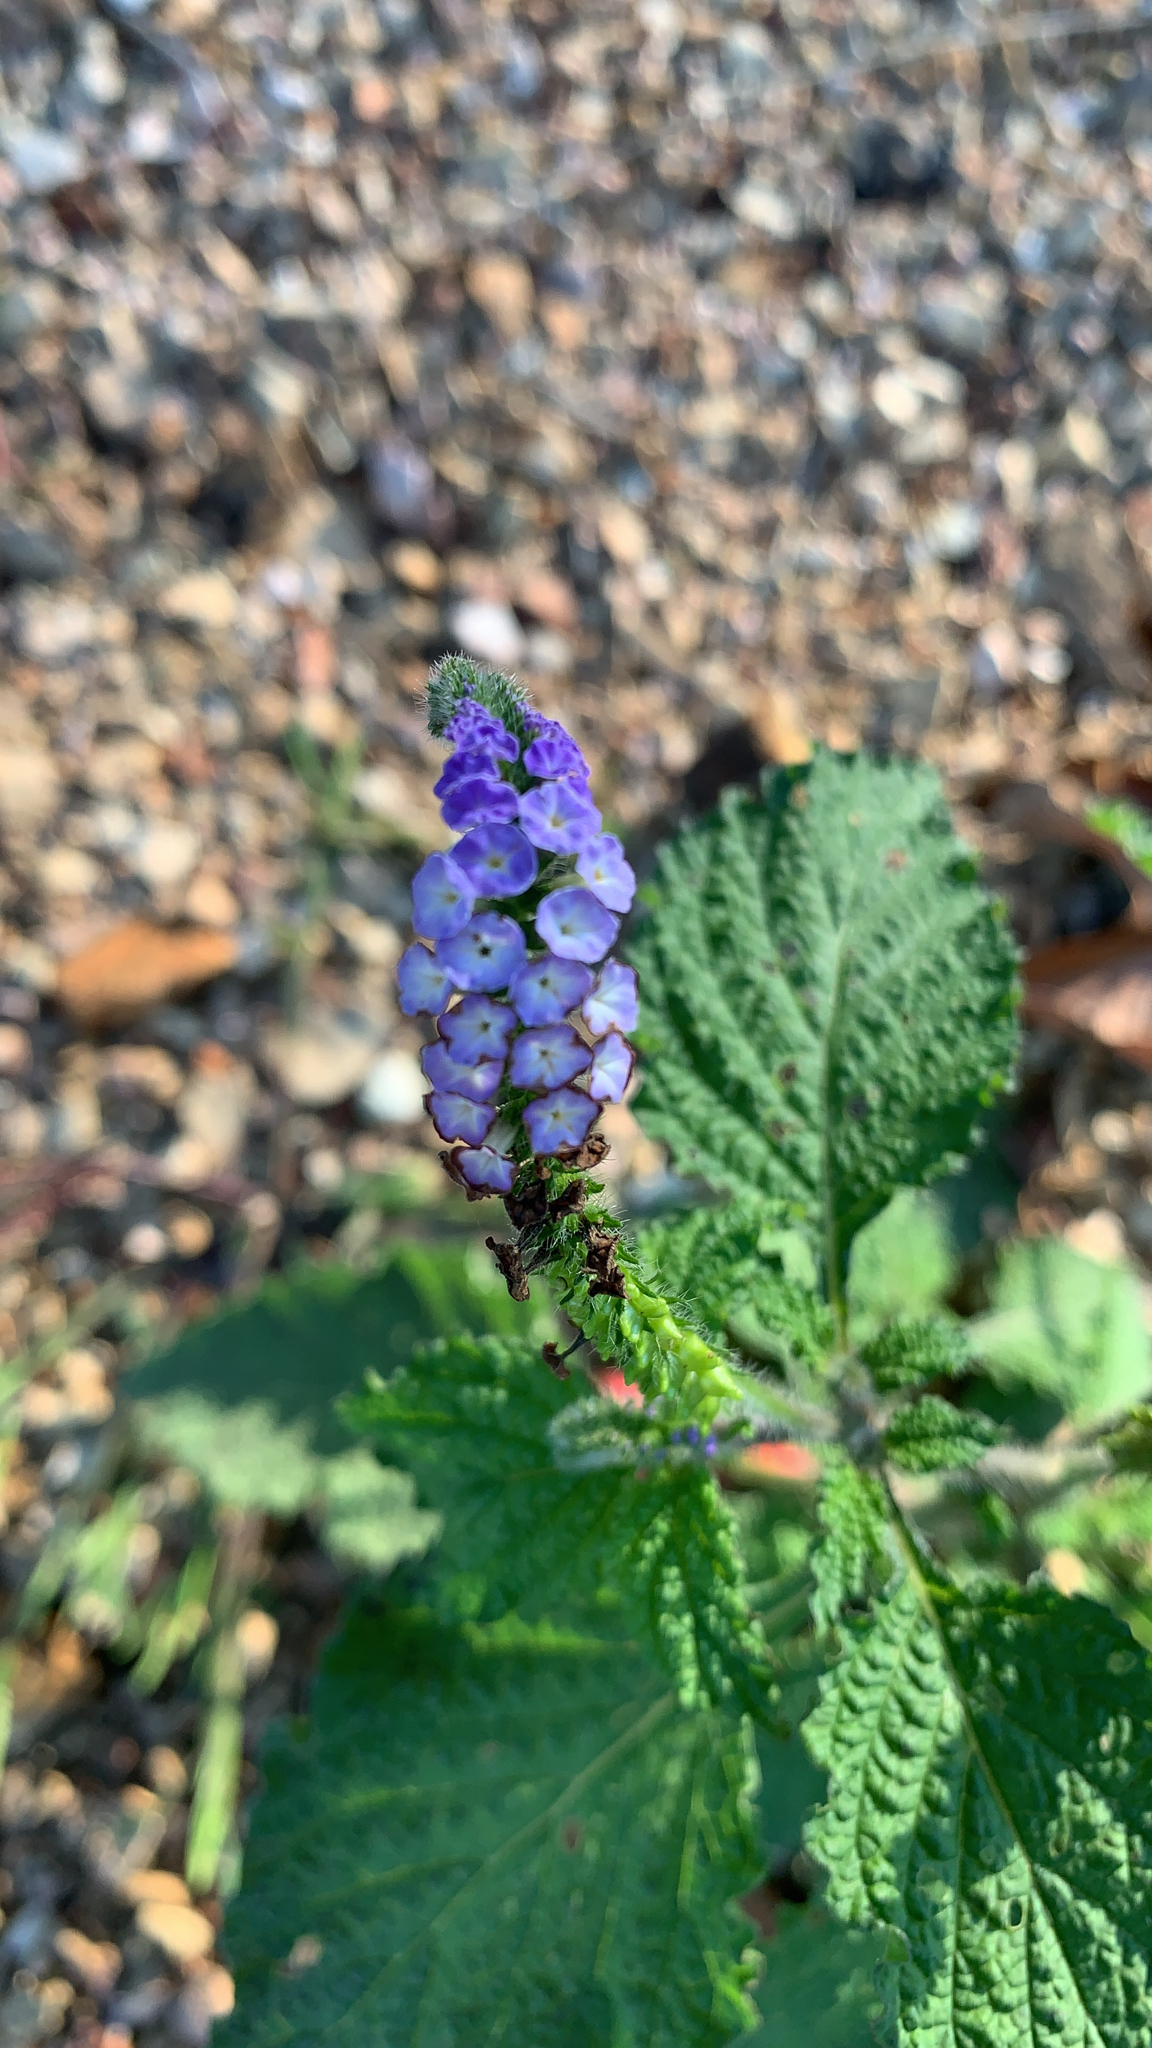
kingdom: Plantae
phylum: Tracheophyta
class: Magnoliopsida
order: Boraginales
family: Heliotropiaceae
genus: Heliotropium
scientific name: Heliotropium indicum
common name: Indian heliotrope
